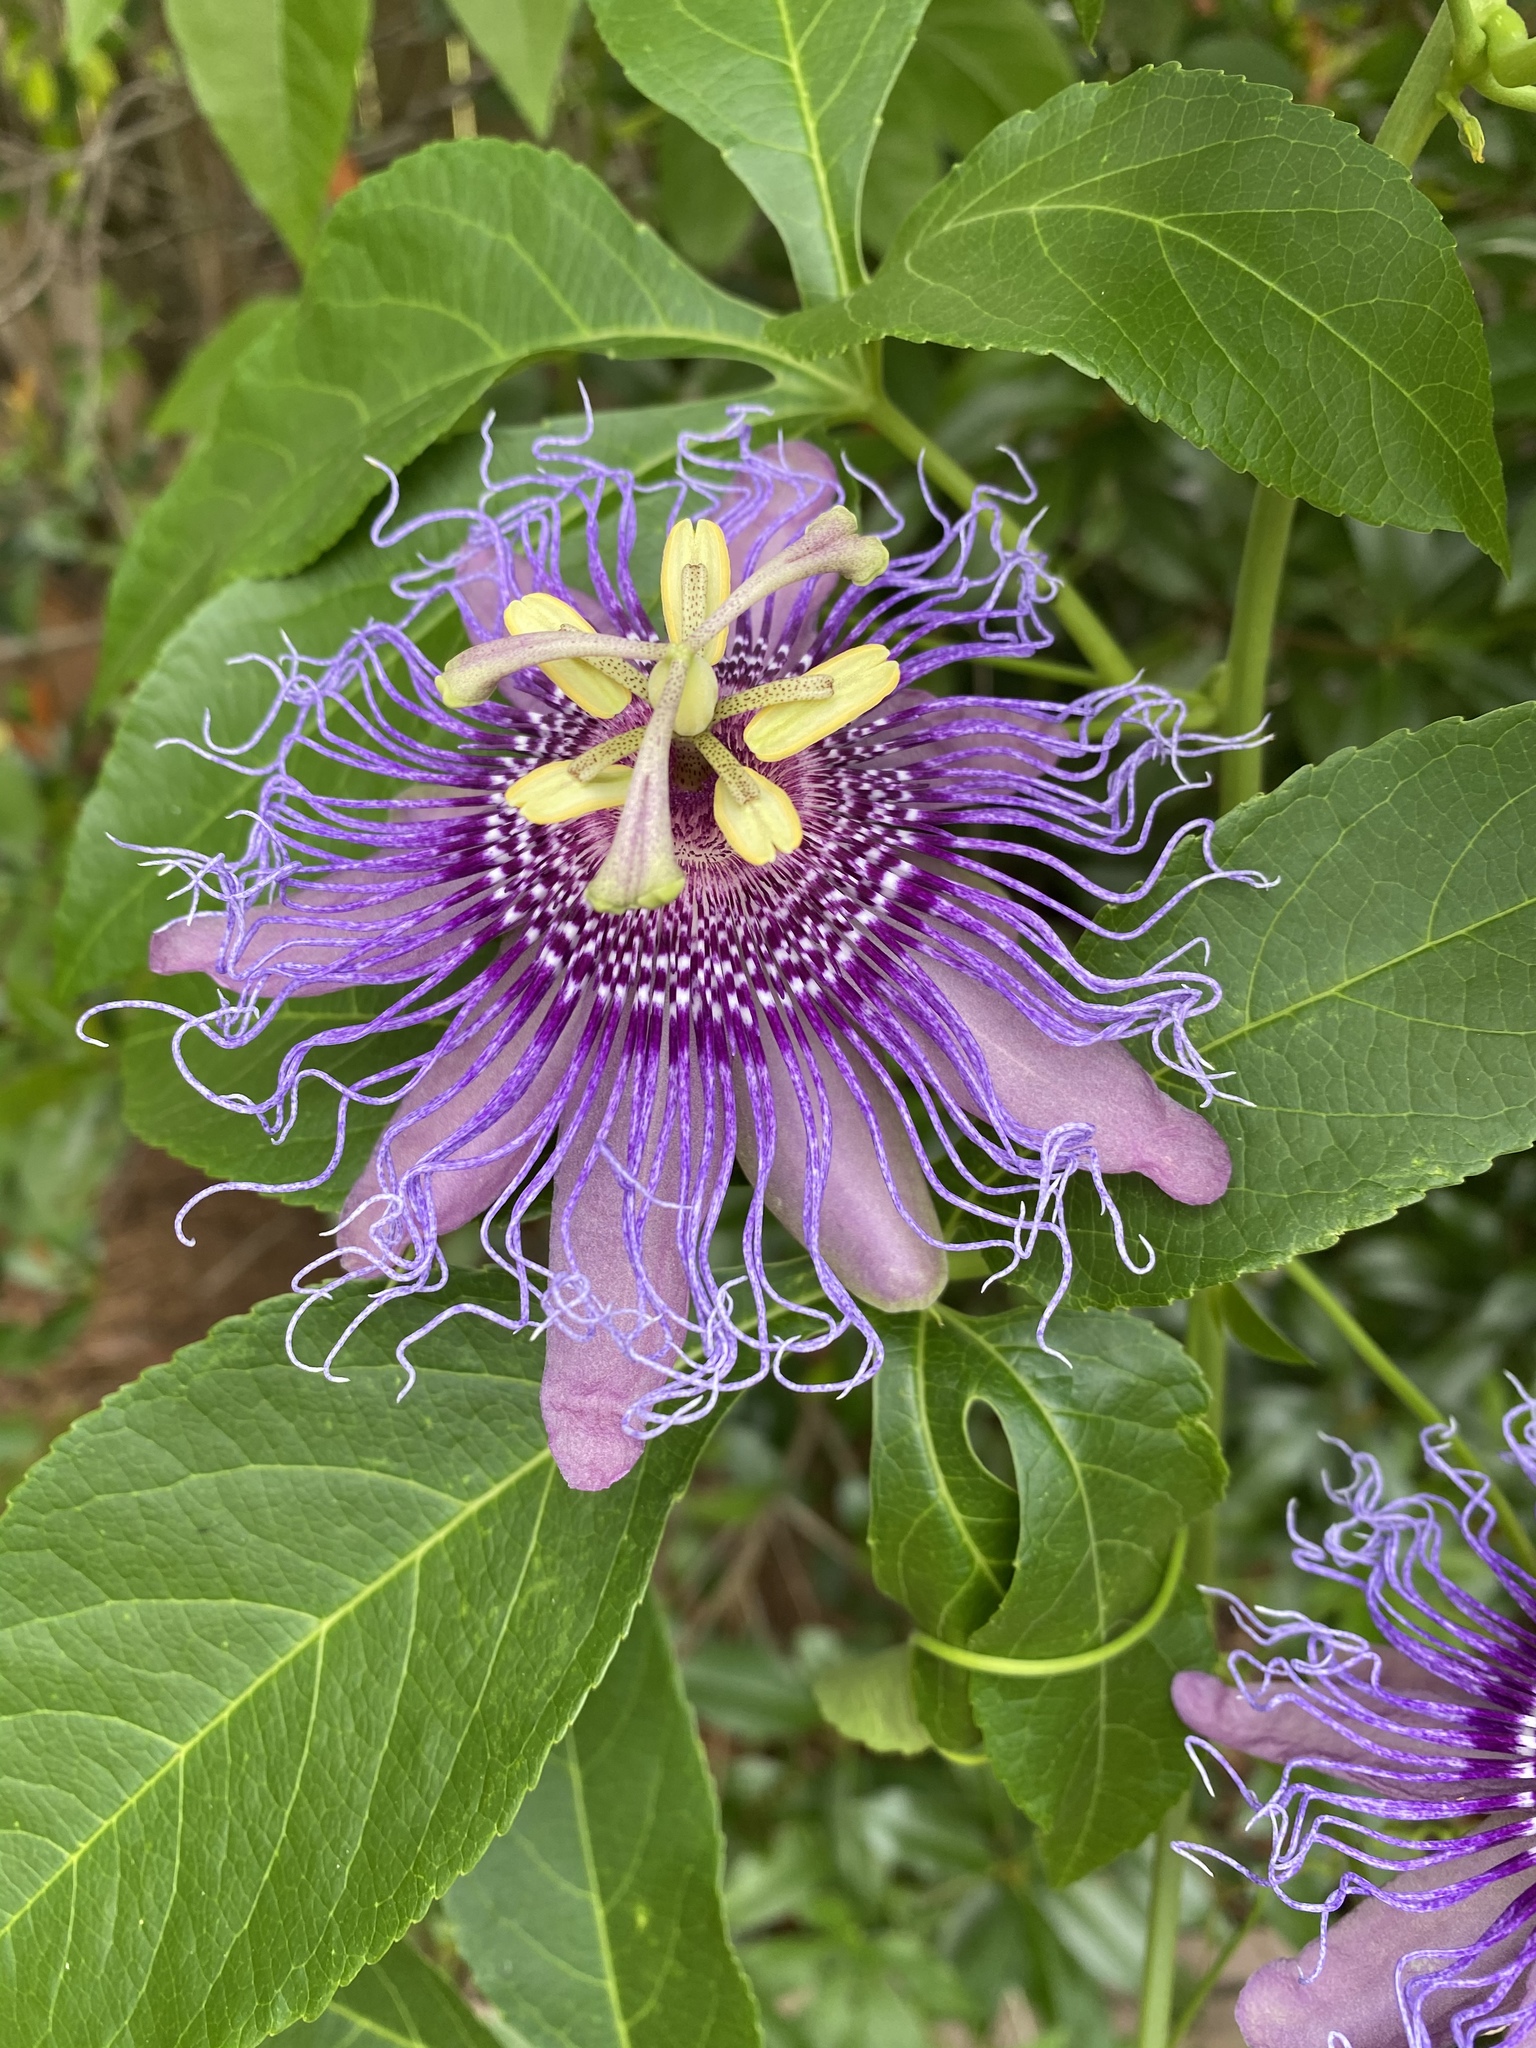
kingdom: Plantae
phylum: Tracheophyta
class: Magnoliopsida
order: Malpighiales
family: Passifloraceae
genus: Passiflora
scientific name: Passiflora
